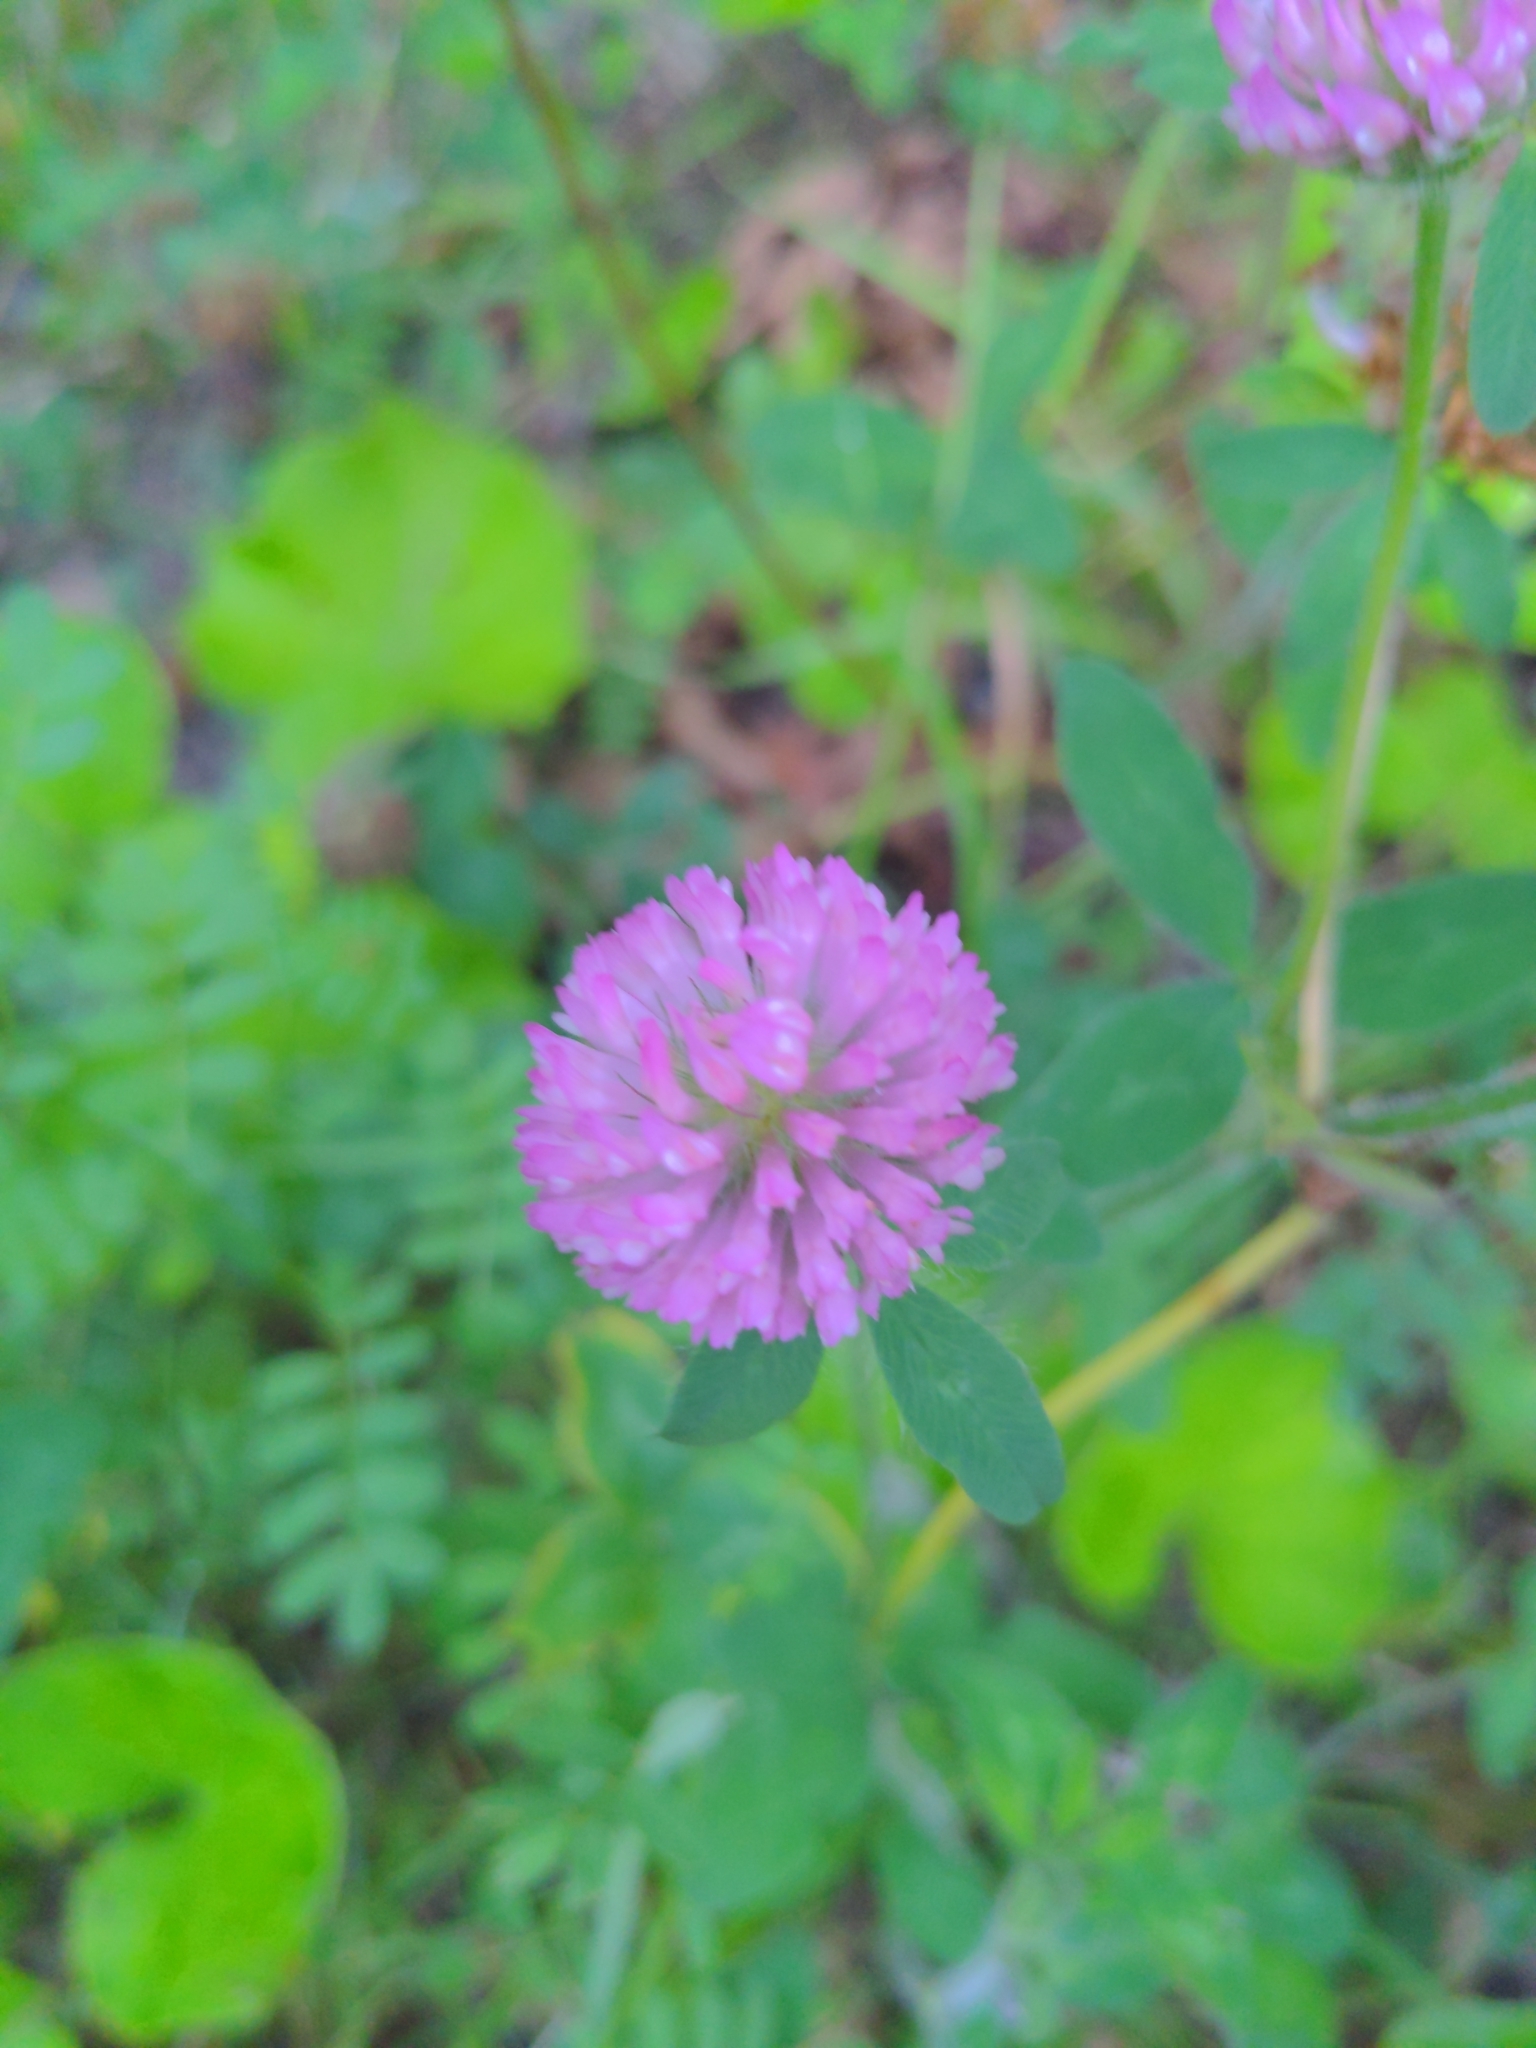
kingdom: Plantae
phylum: Tracheophyta
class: Magnoliopsida
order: Fabales
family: Fabaceae
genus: Trifolium
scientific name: Trifolium pratense
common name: Red clover
